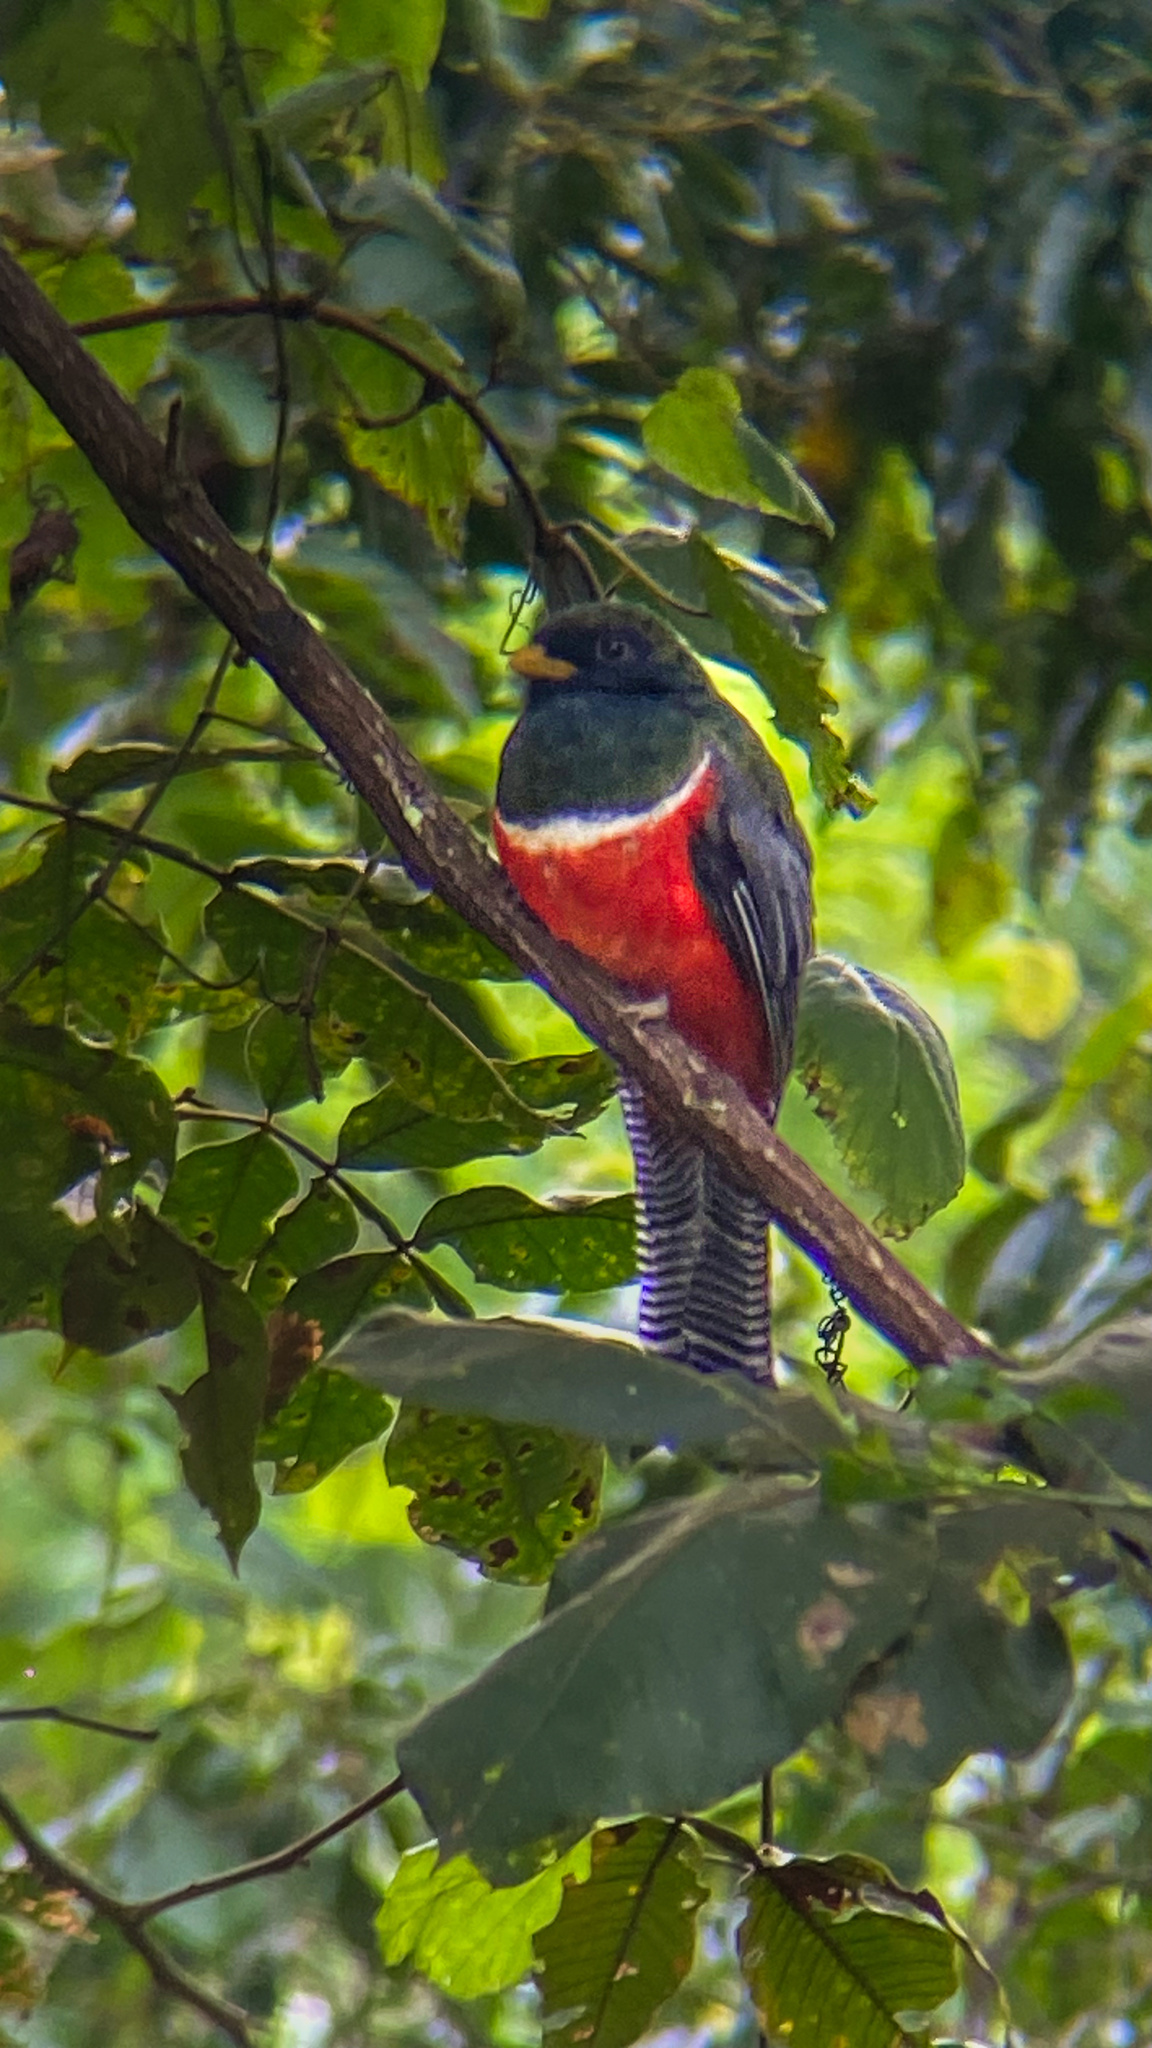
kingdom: Animalia
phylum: Chordata
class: Aves
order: Trogoniformes
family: Trogonidae
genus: Trogon
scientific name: Trogon collaris
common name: Collared trogon
